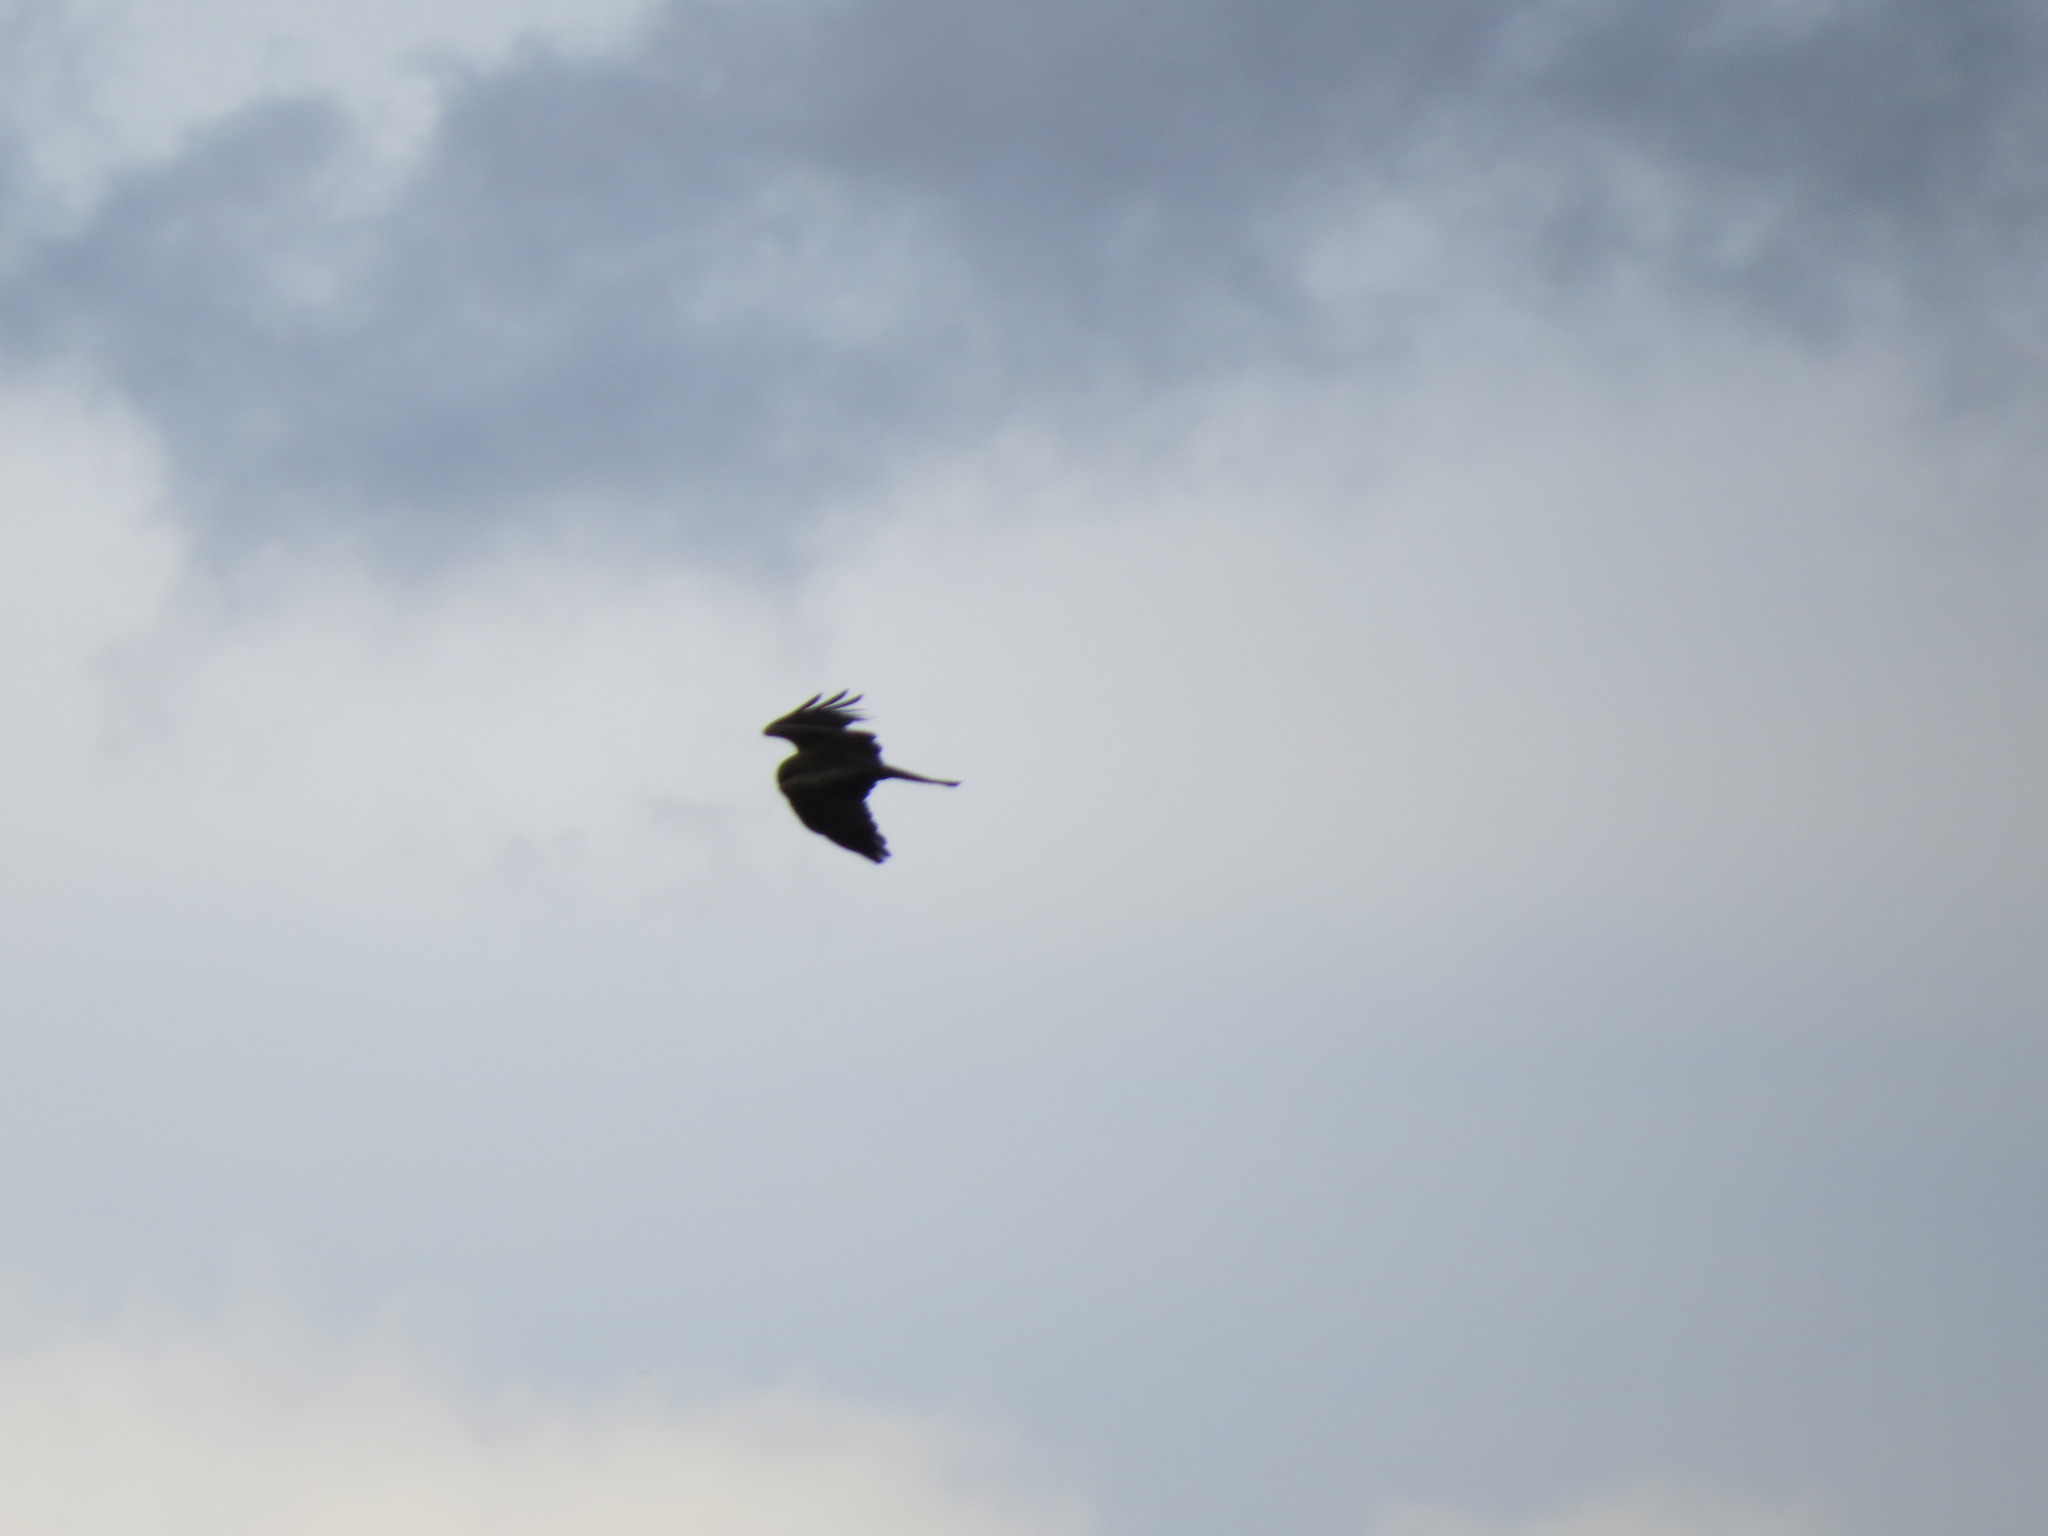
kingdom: Animalia
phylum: Chordata
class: Aves
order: Accipitriformes
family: Accipitridae
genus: Milvus
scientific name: Milvus migrans
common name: Black kite
